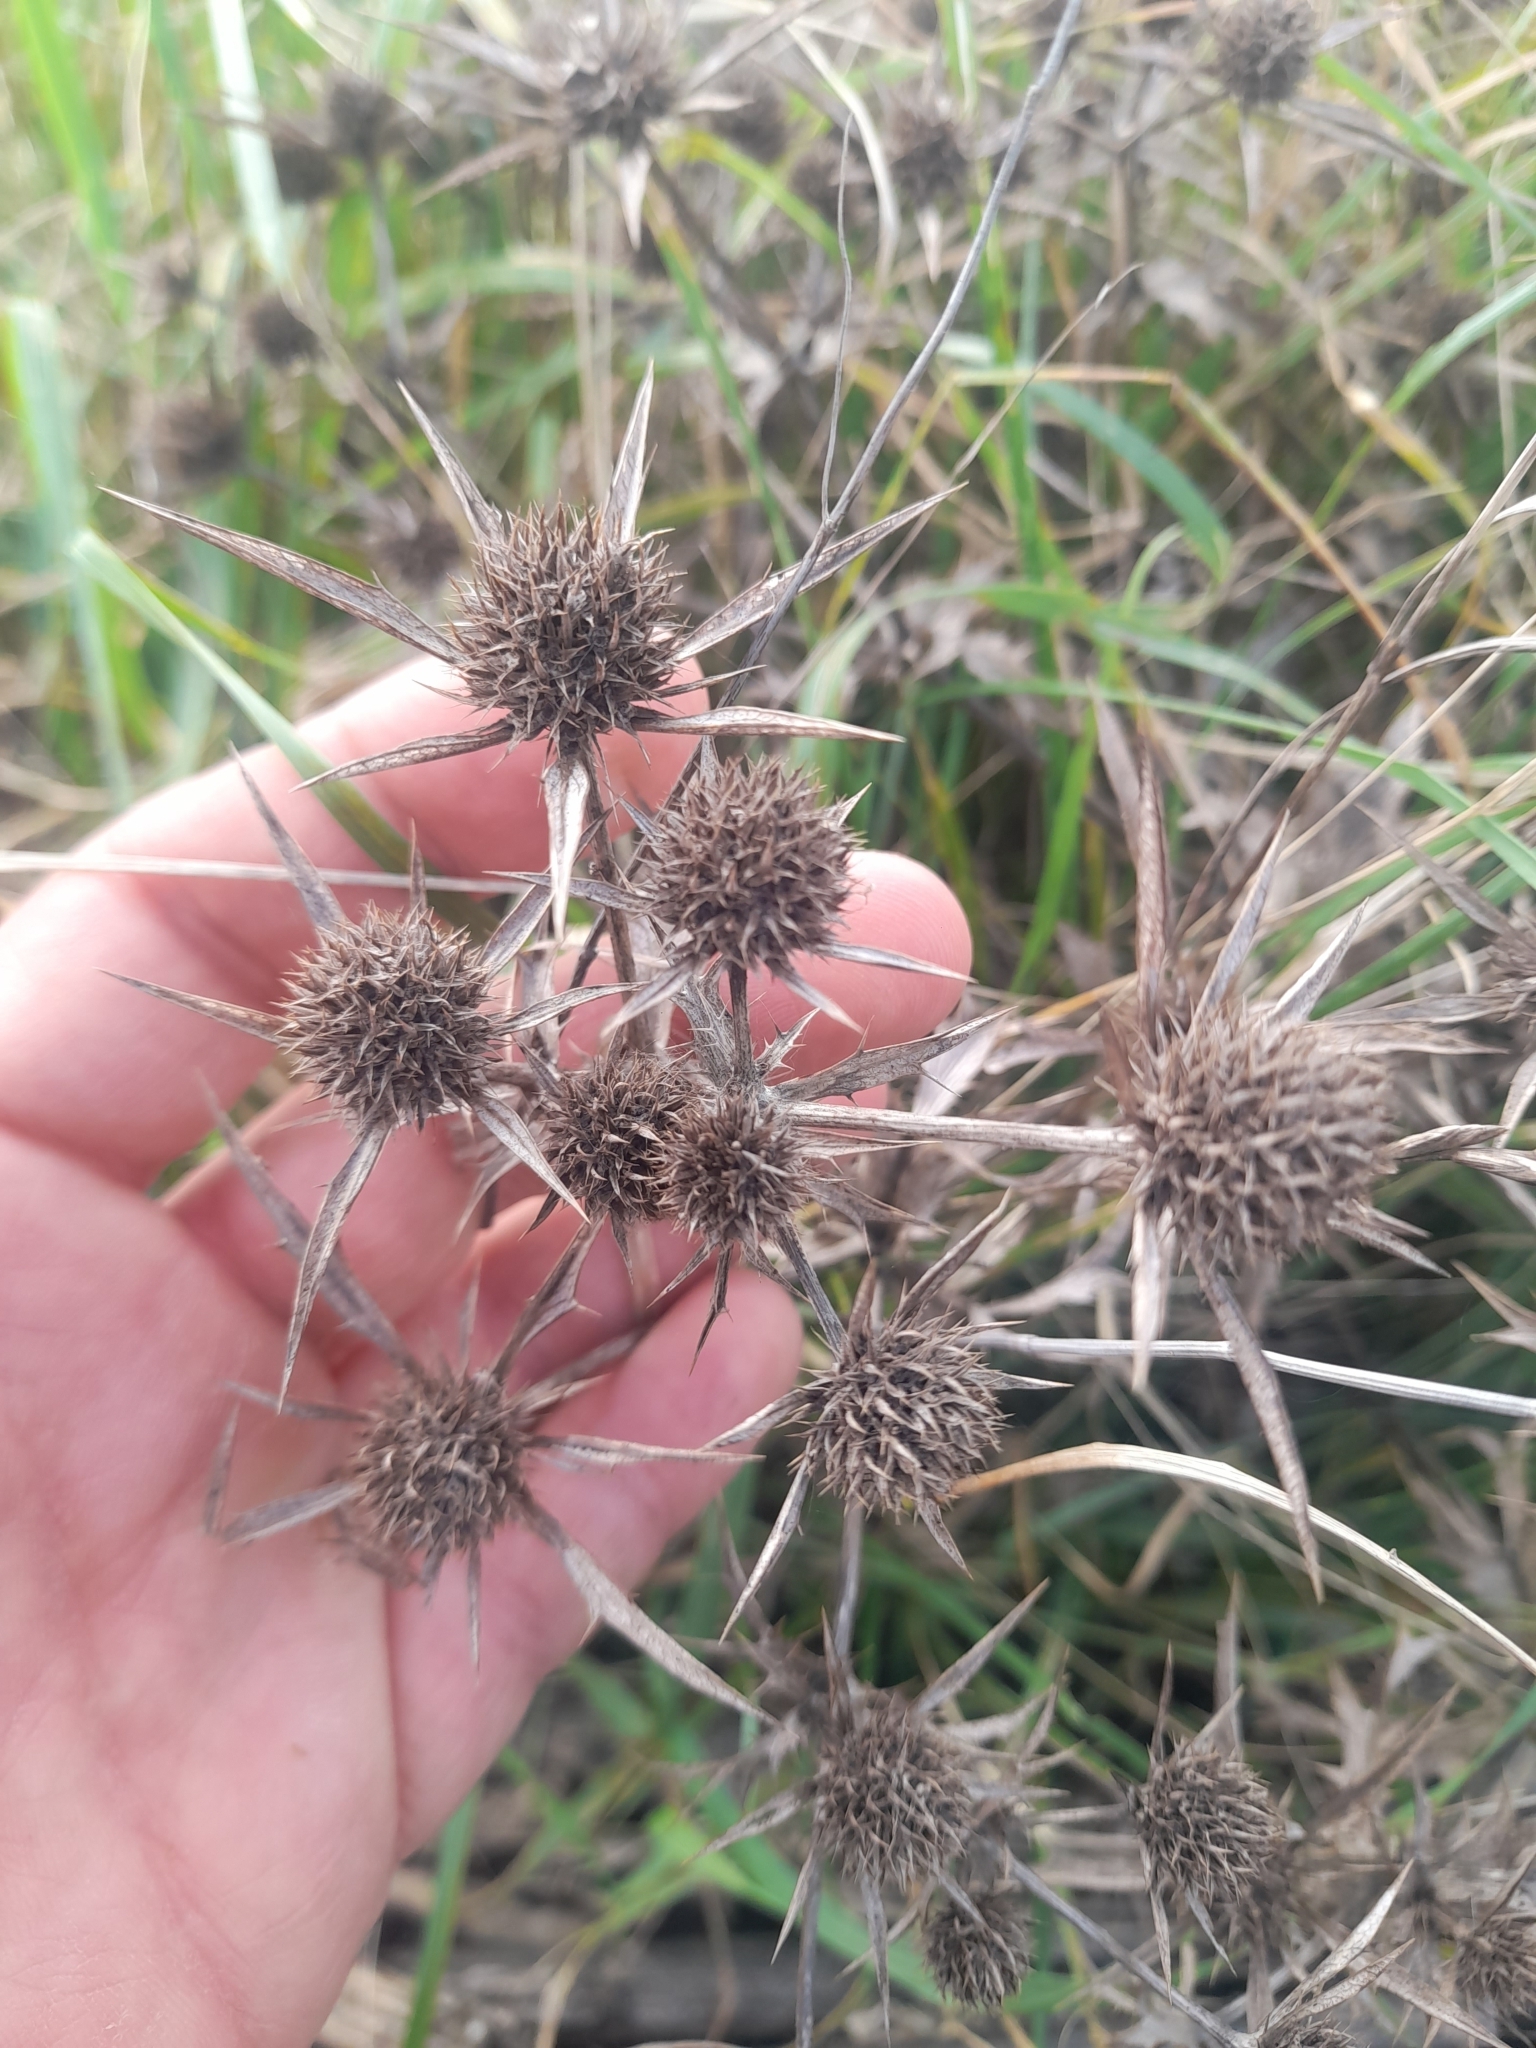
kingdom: Plantae
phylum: Tracheophyta
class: Magnoliopsida
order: Apiales
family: Apiaceae
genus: Eryngium
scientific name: Eryngium campestre
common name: Field eryngo
